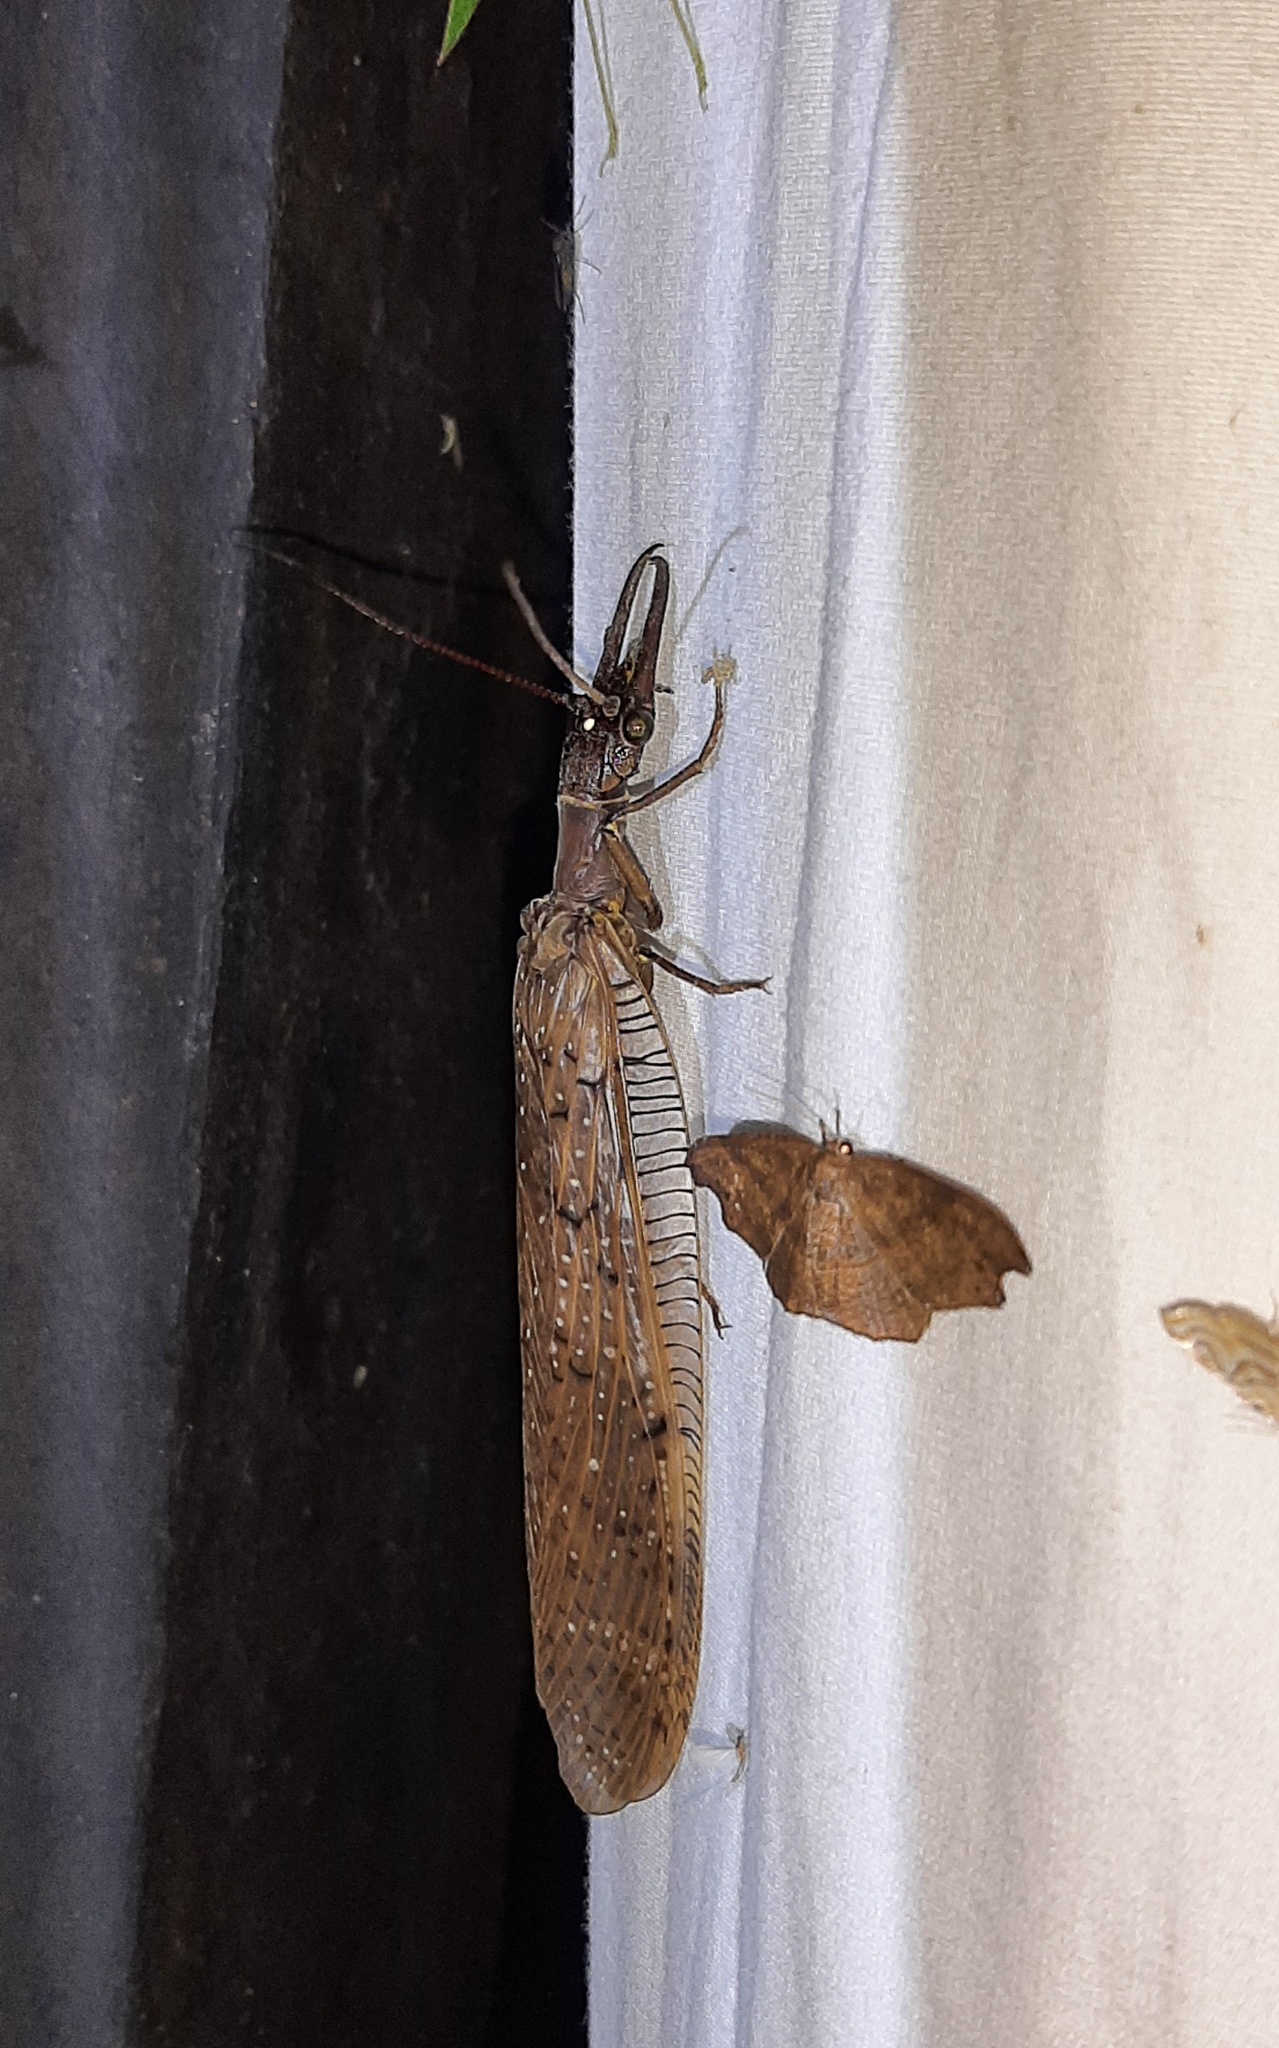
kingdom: Animalia
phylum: Arthropoda
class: Insecta
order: Megaloptera
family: Corydalidae
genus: Corydalus
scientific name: Corydalus holzenthali
